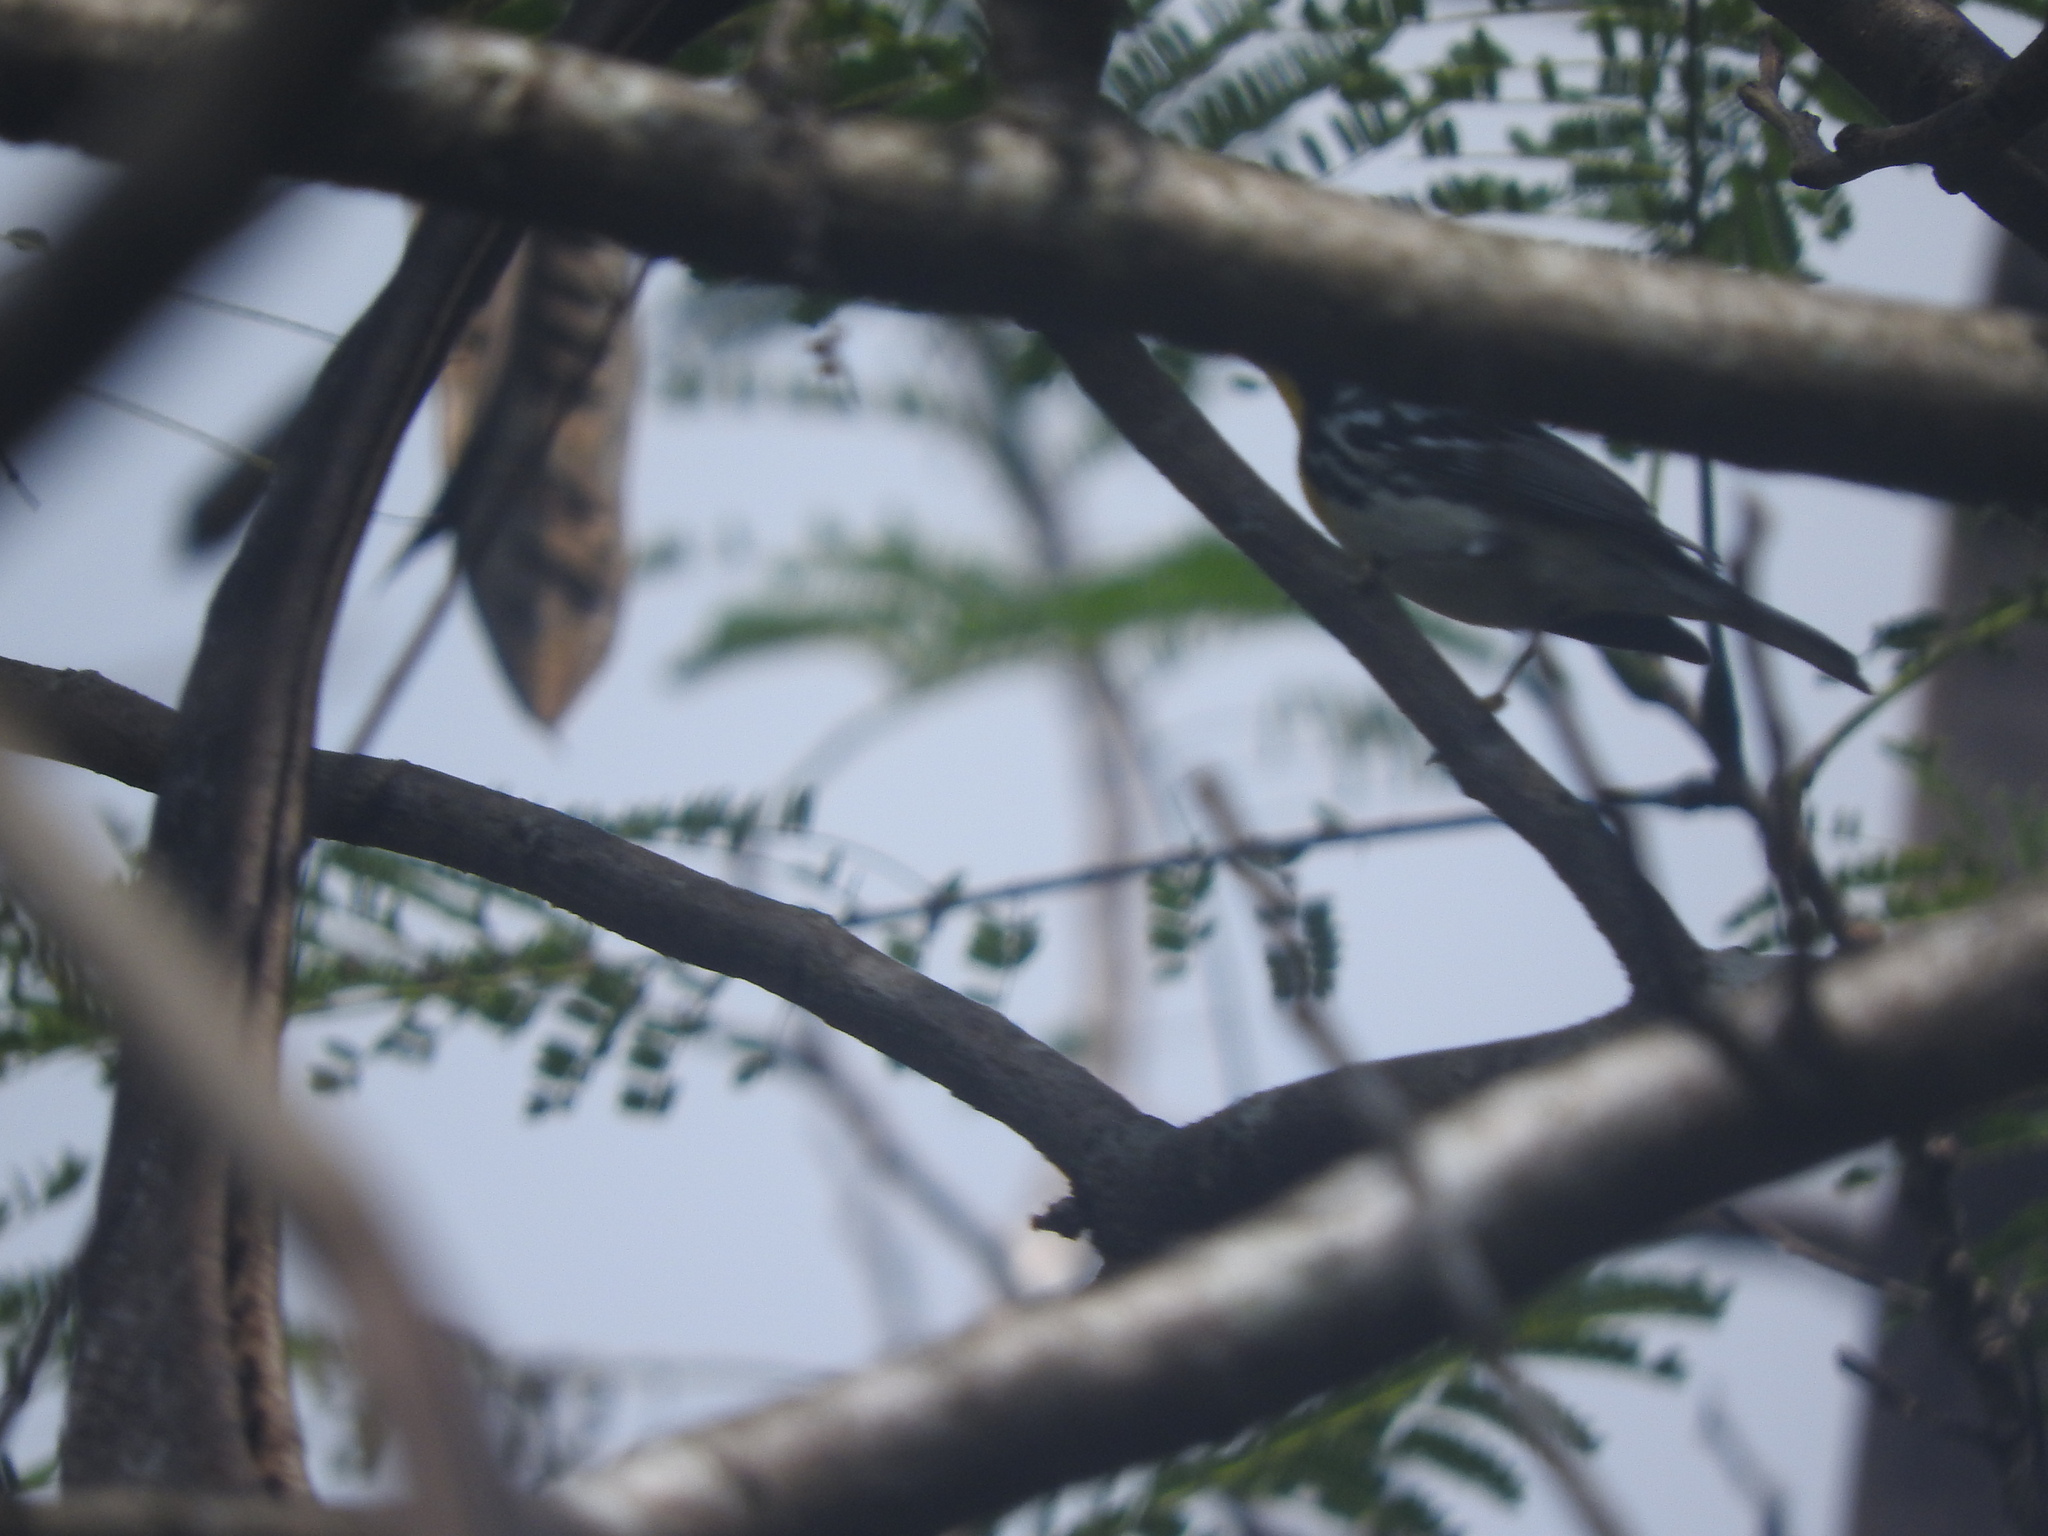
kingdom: Animalia
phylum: Chordata
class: Aves
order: Passeriformes
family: Parulidae
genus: Setophaga
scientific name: Setophaga dominica
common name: Yellow-throated warbler
